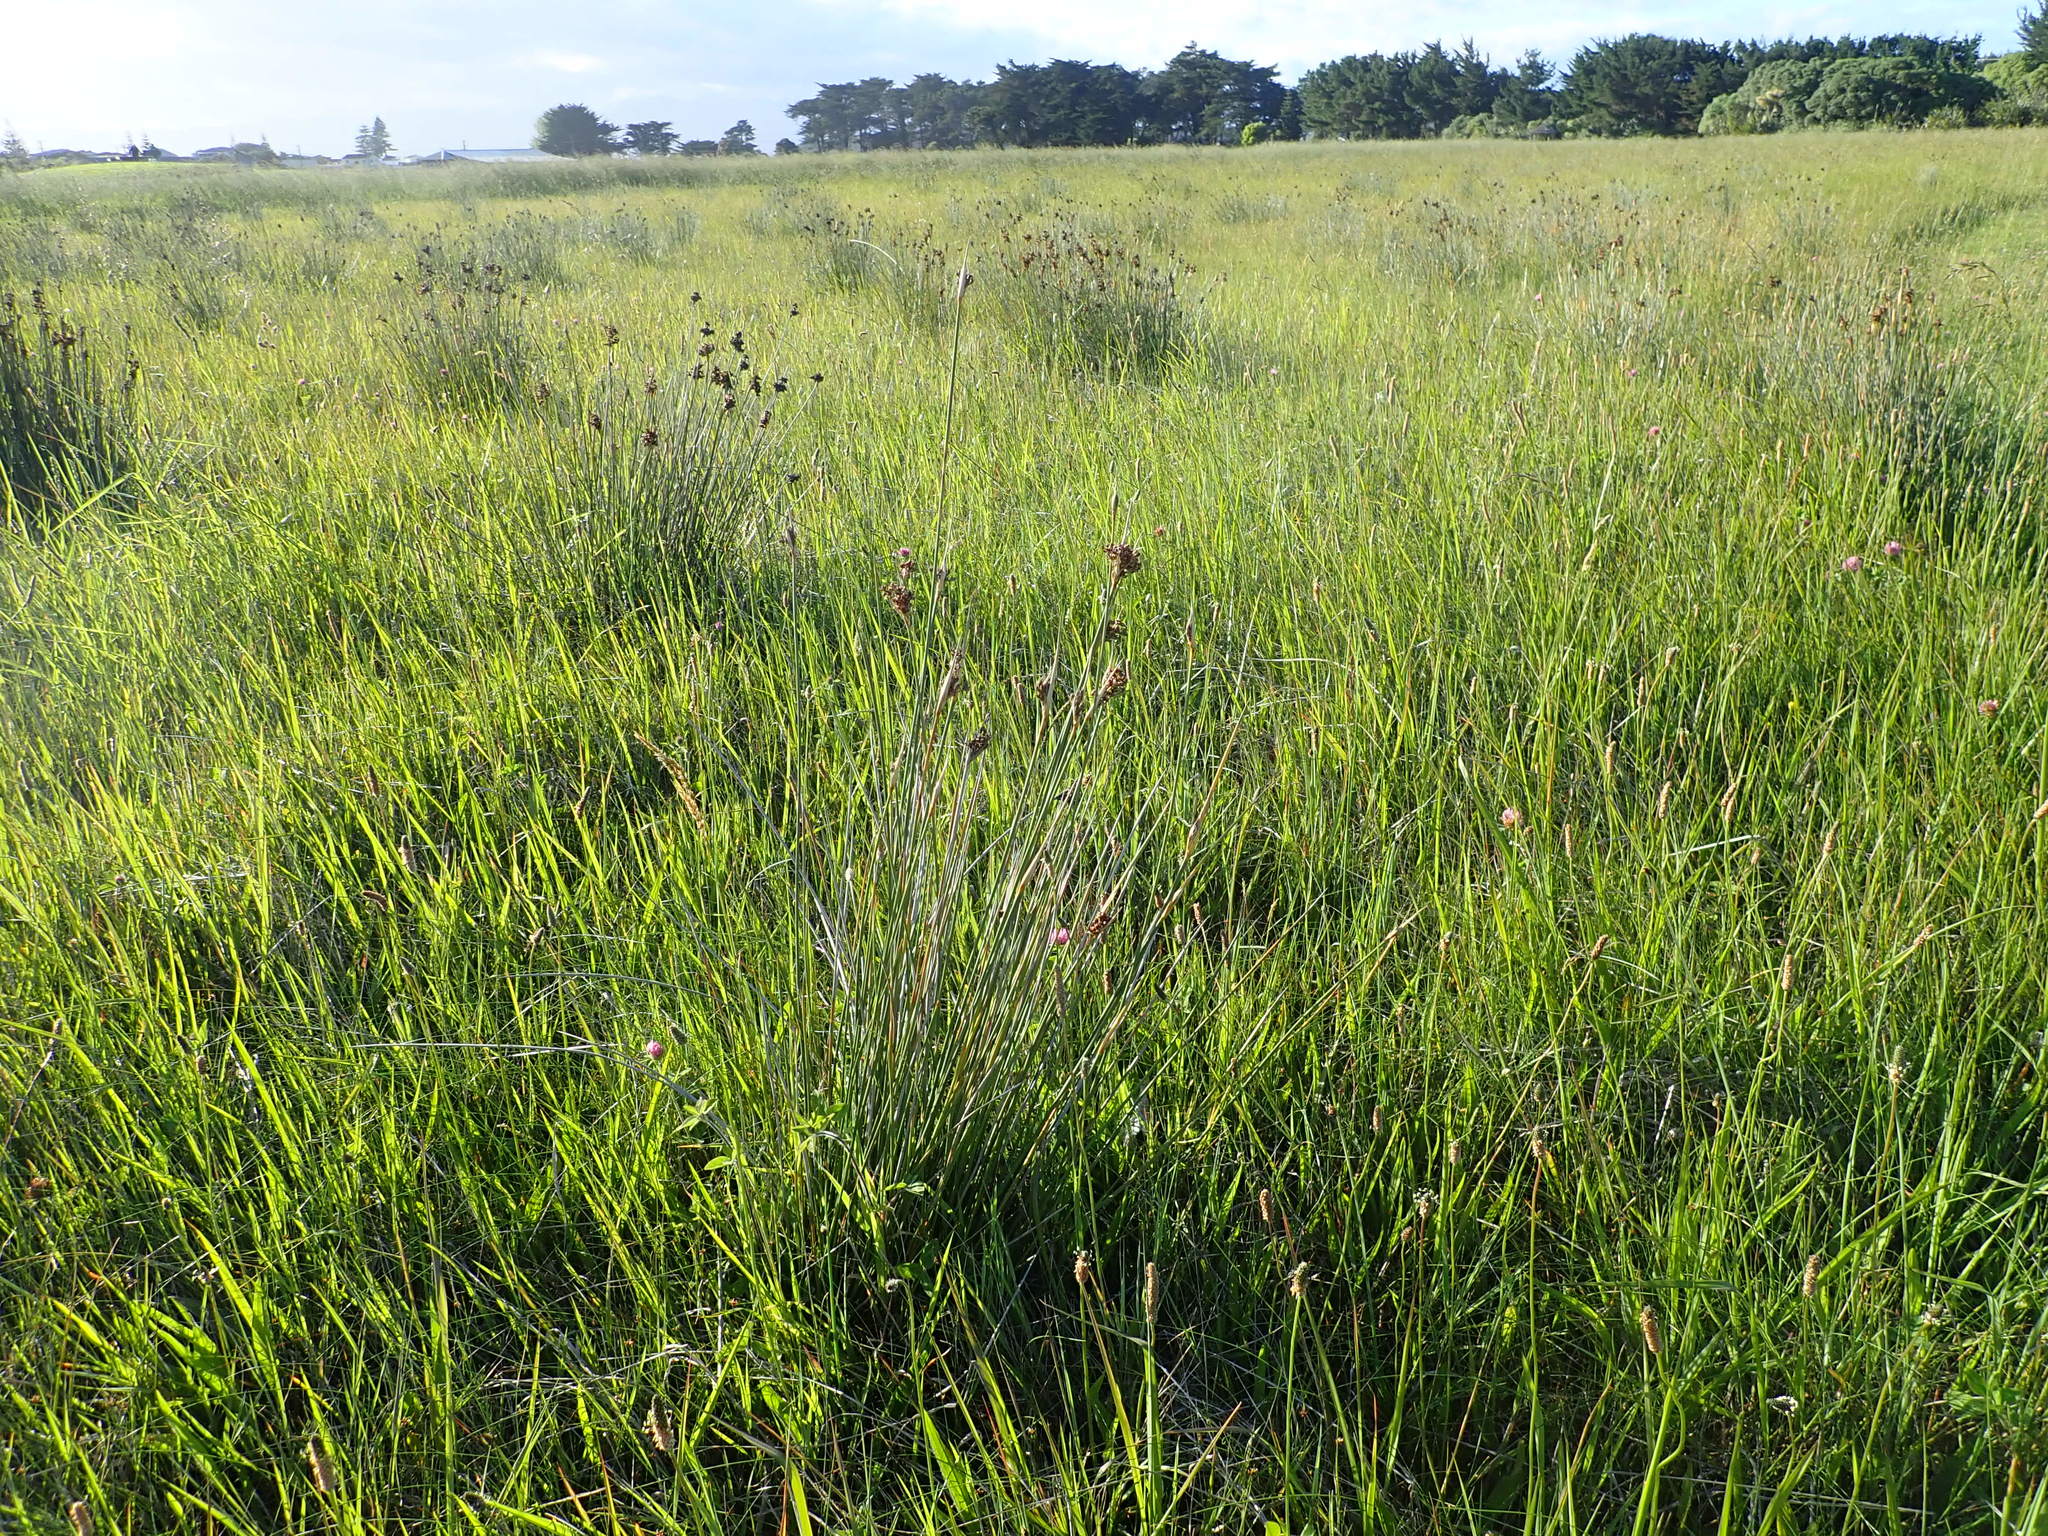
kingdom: Plantae
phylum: Tracheophyta
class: Liliopsida
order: Poales
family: Juncaceae
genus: Juncus
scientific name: Juncus acutus
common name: Sharp rush
